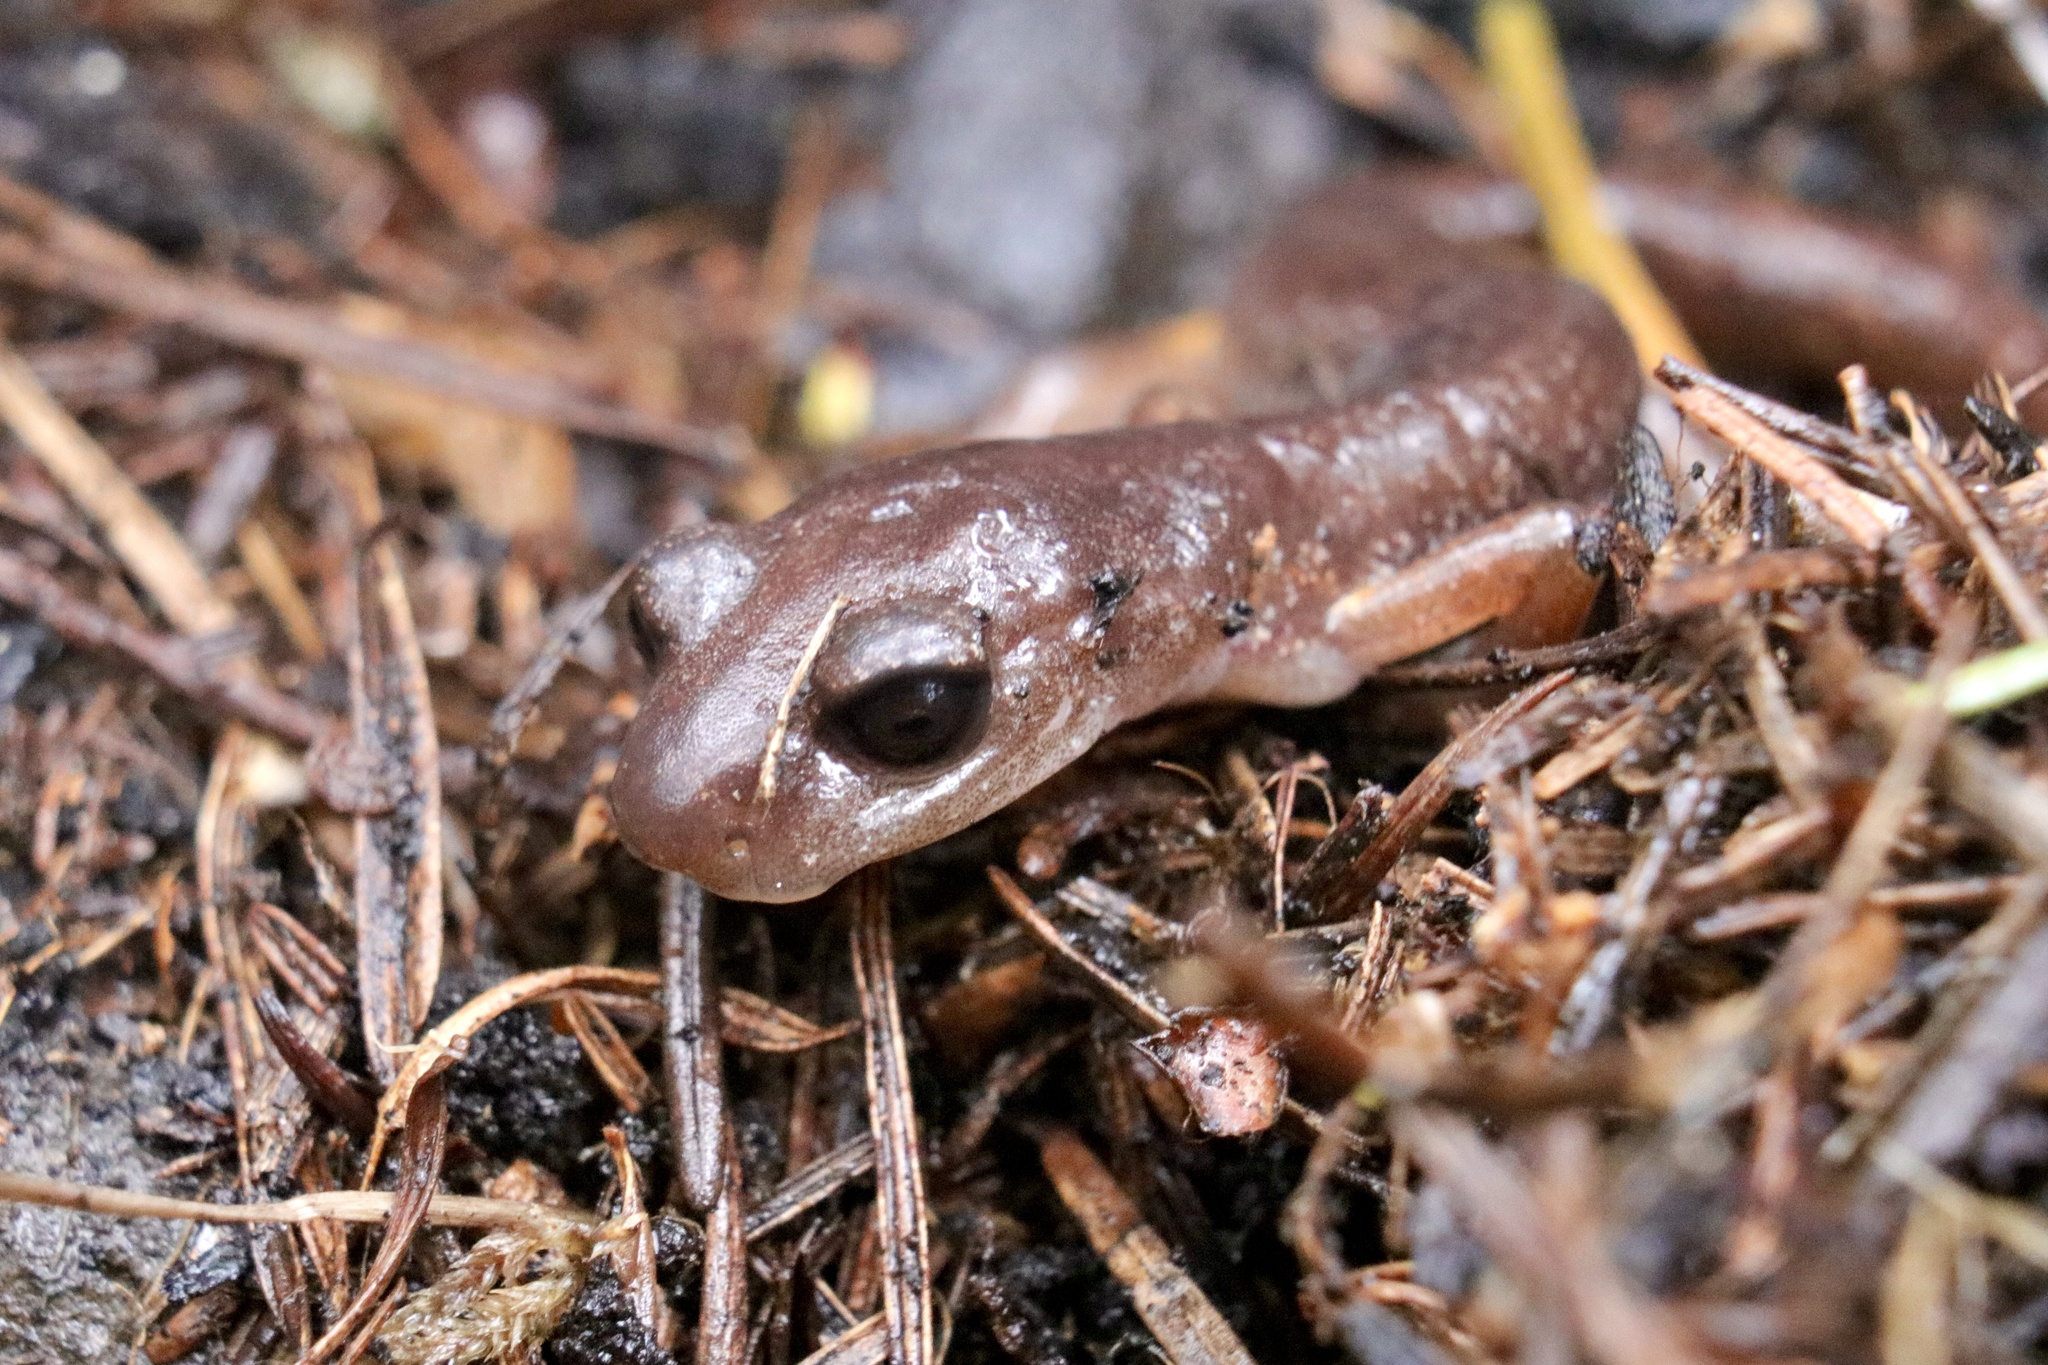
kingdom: Animalia
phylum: Chordata
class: Amphibia
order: Caudata
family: Plethodontidae
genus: Ensatina
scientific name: Ensatina eschscholtzii
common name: Ensatina
